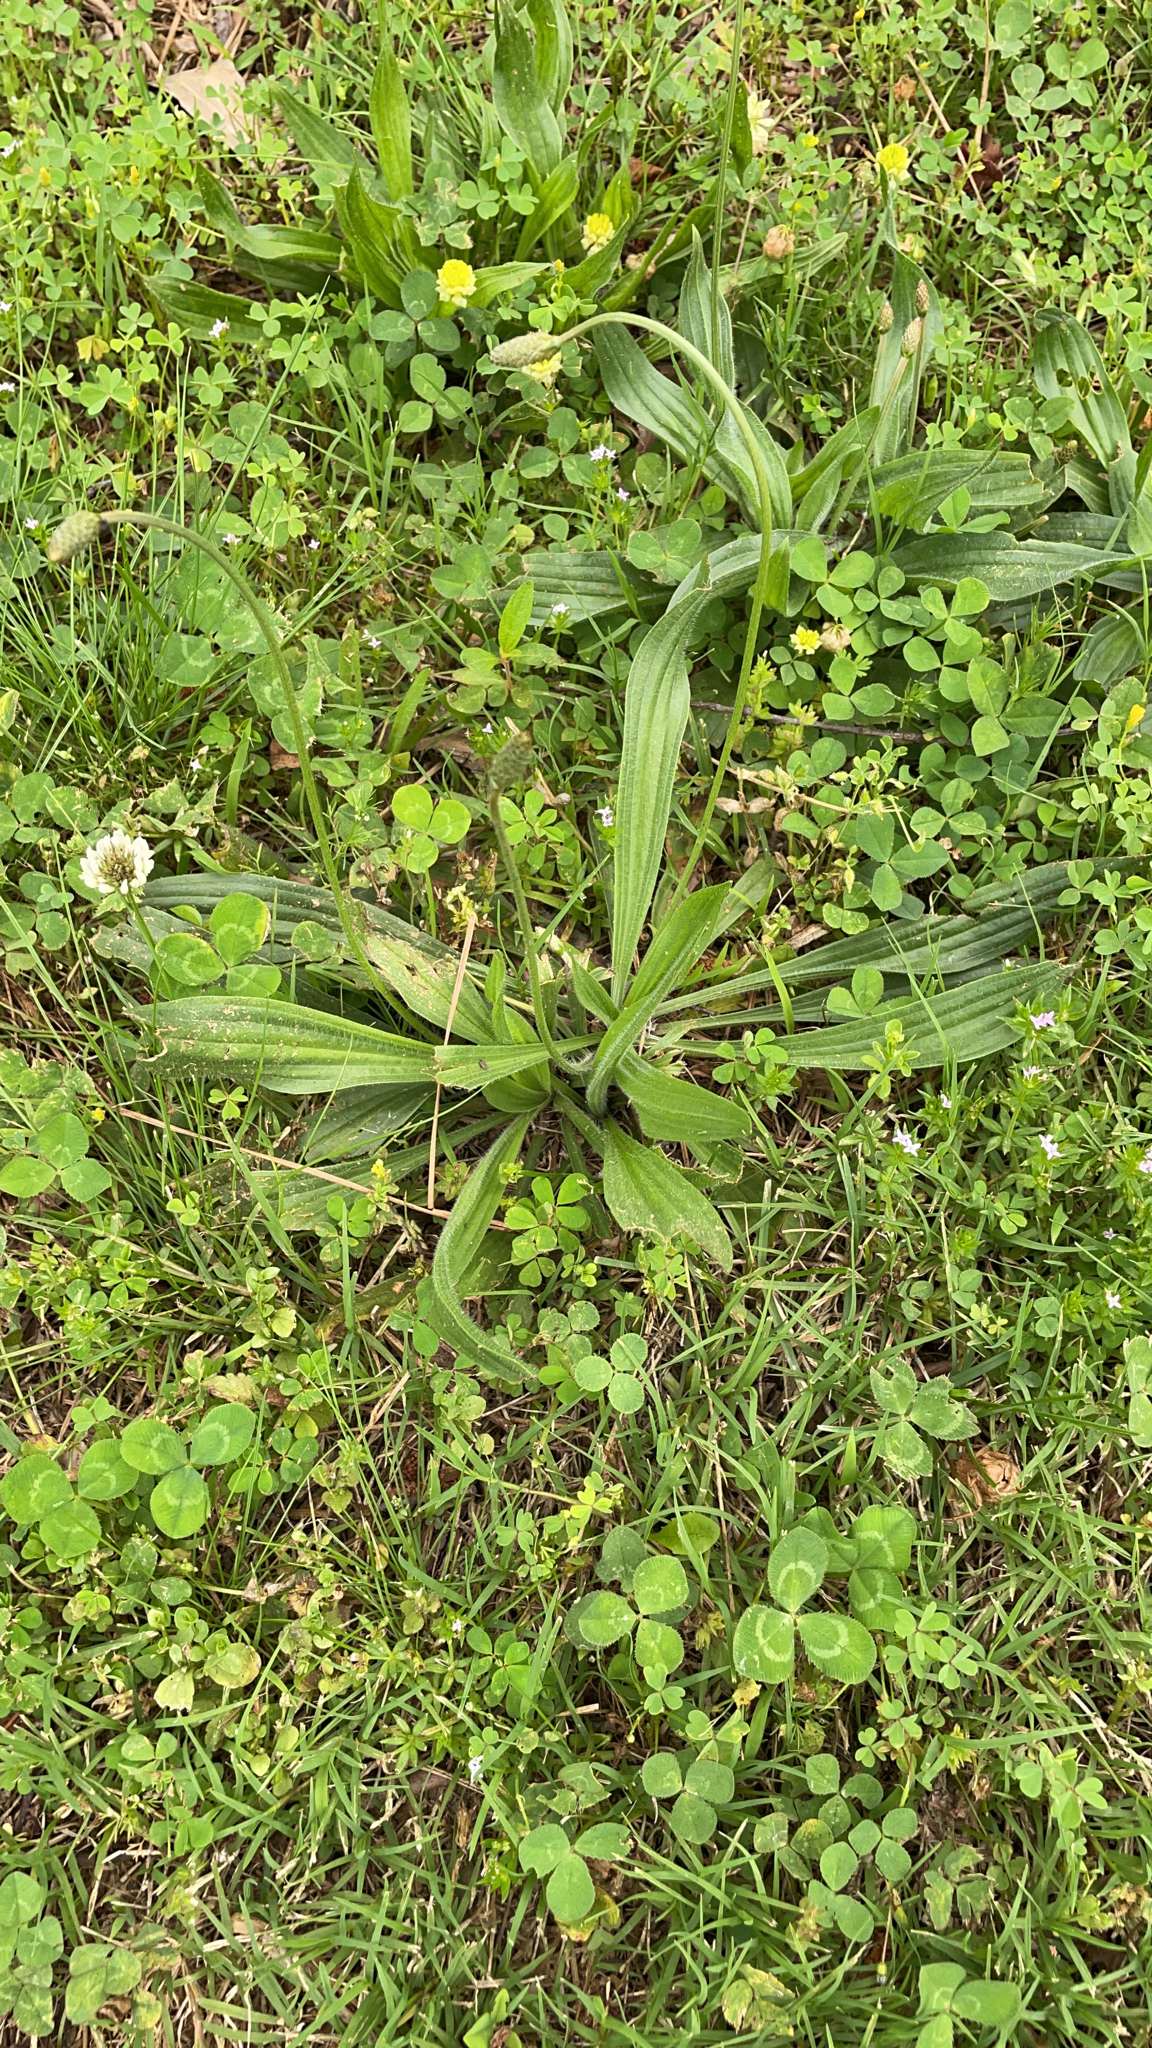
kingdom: Plantae
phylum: Tracheophyta
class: Magnoliopsida
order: Lamiales
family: Plantaginaceae
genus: Plantago
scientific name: Plantago lanceolata
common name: Ribwort plantain
